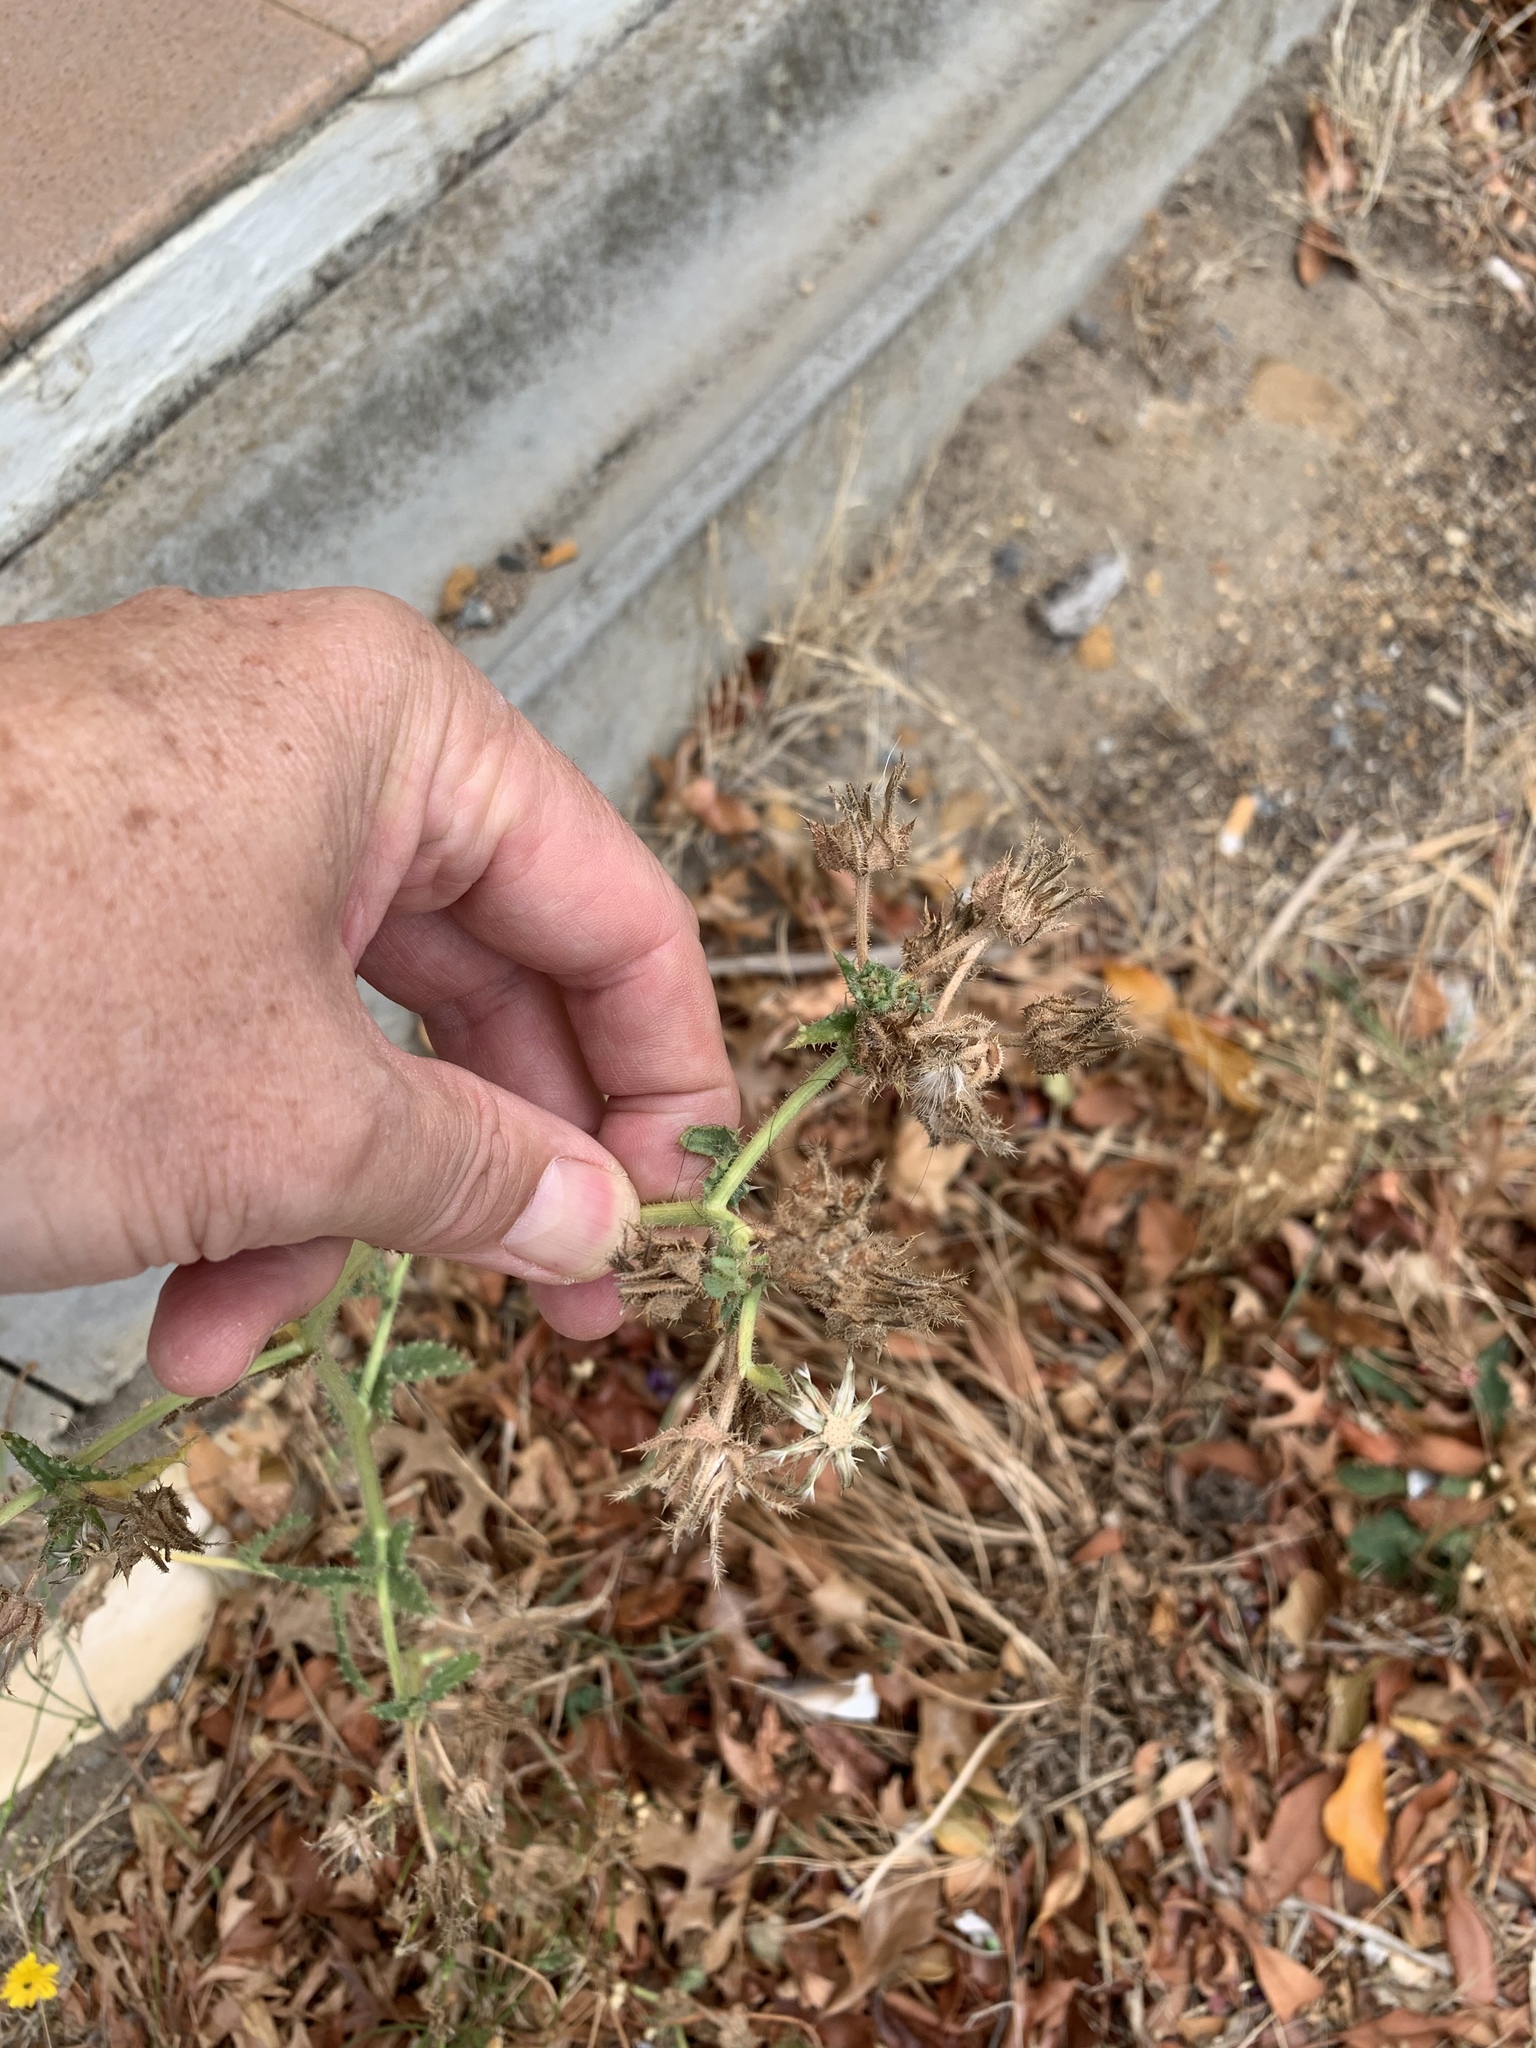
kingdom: Plantae
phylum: Tracheophyta
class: Magnoliopsida
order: Asterales
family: Asteraceae
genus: Helminthotheca
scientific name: Helminthotheca echioides
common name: Ox-tongue
